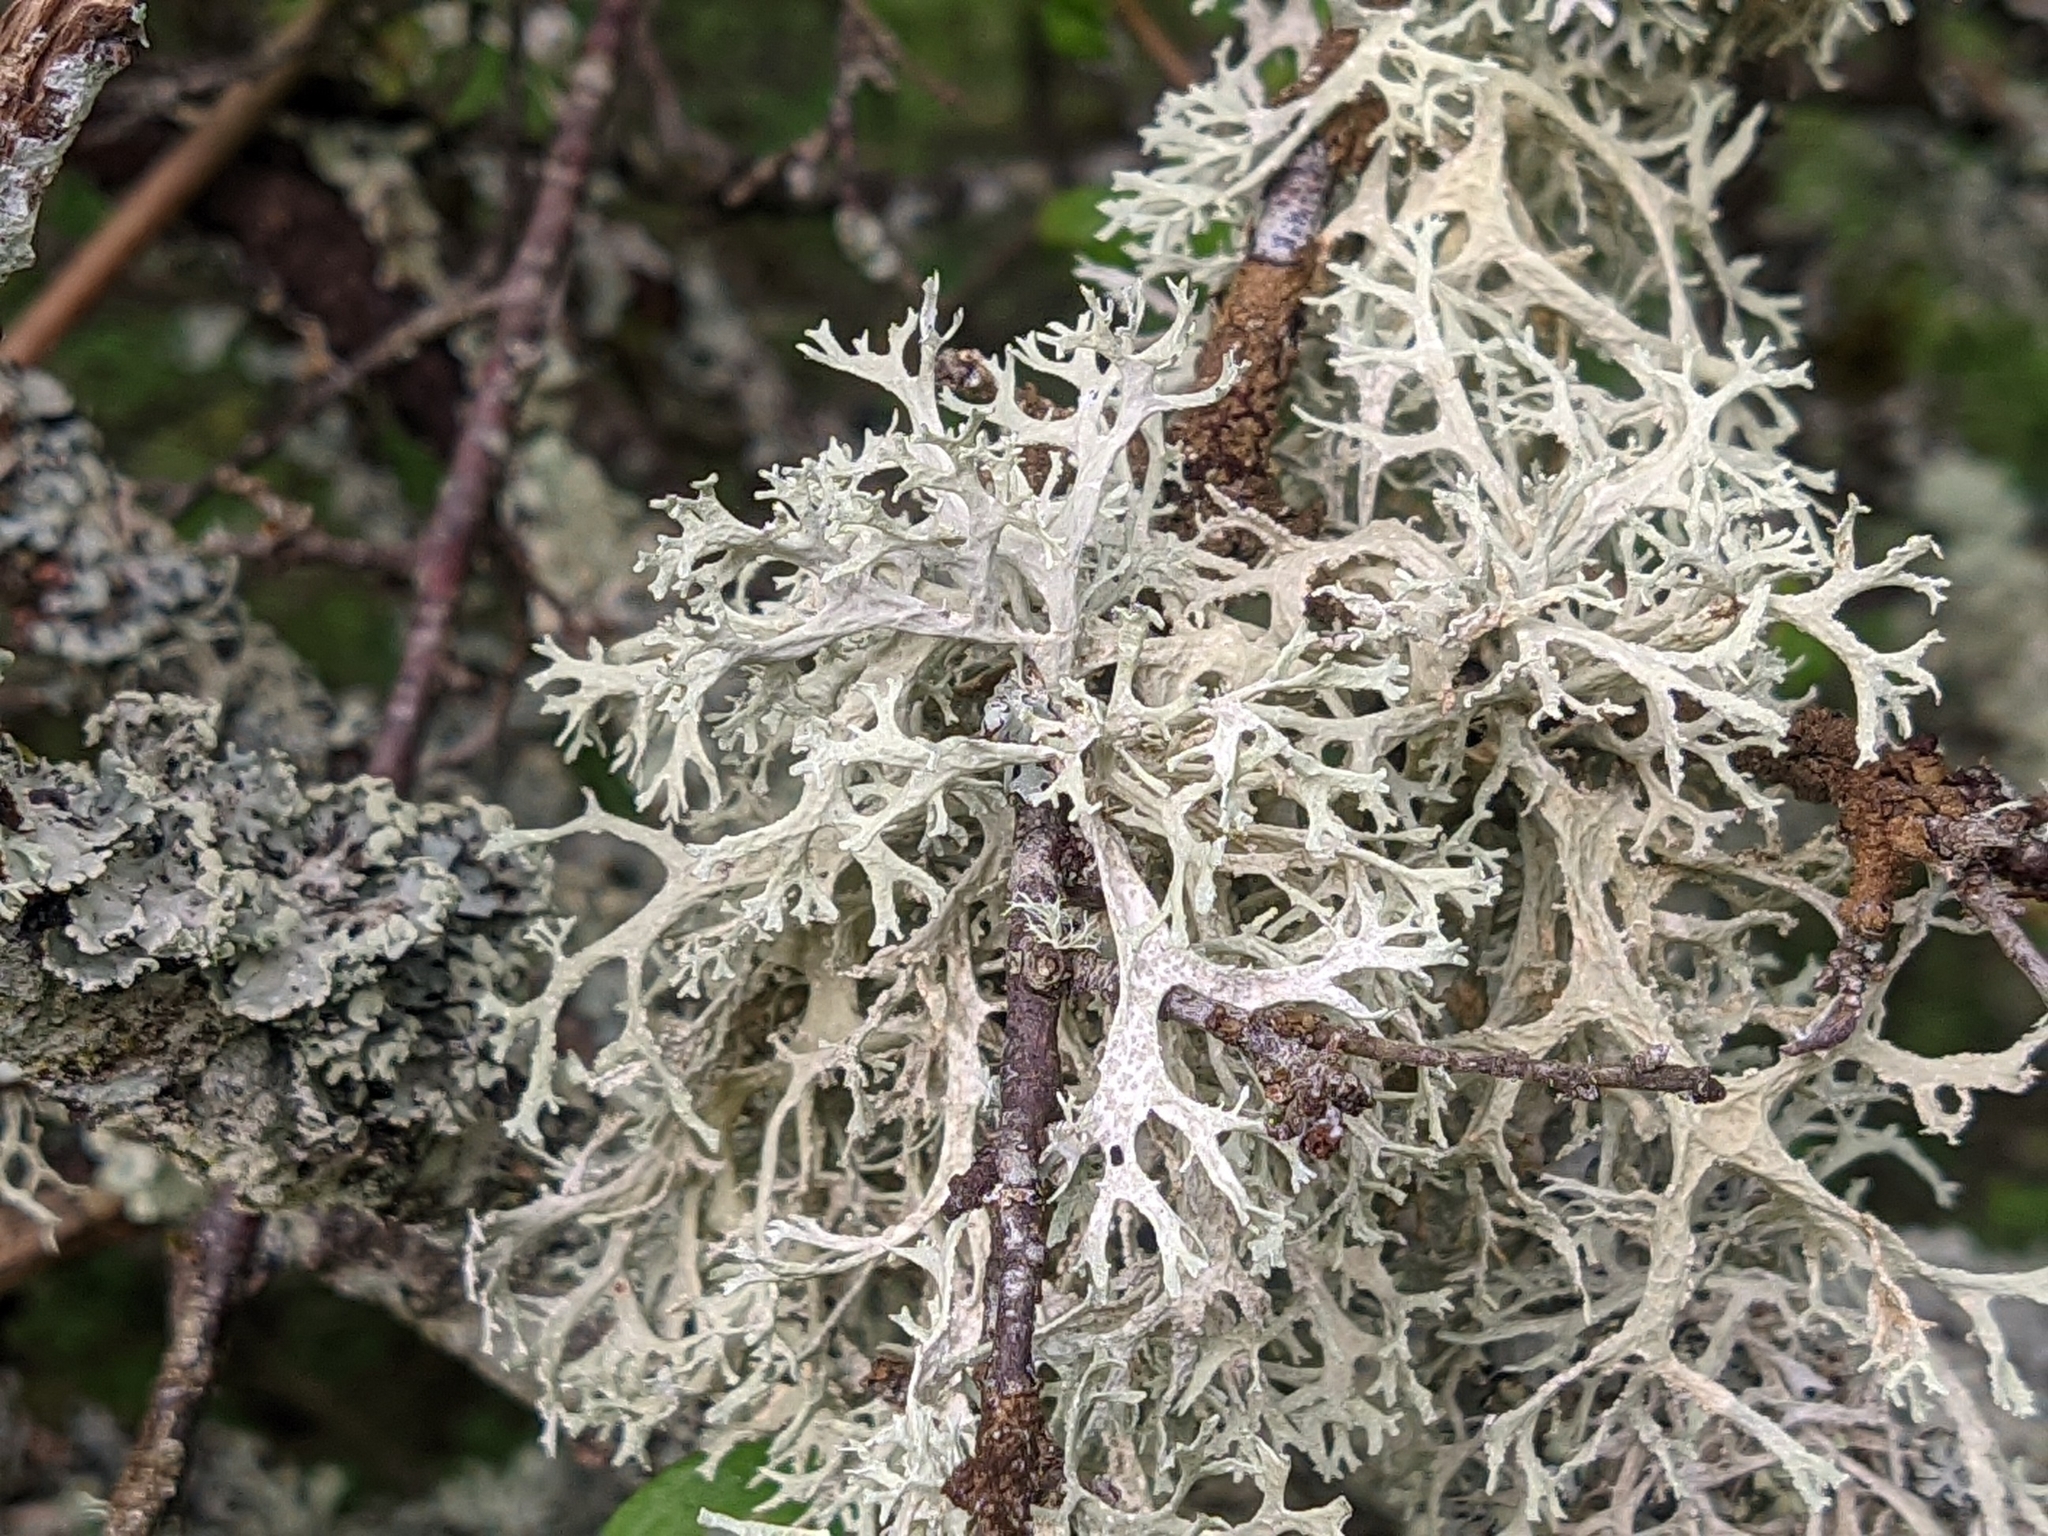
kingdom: Fungi
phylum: Ascomycota
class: Lecanoromycetes
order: Lecanorales
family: Parmeliaceae
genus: Evernia
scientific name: Evernia prunastri
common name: Oak moss
